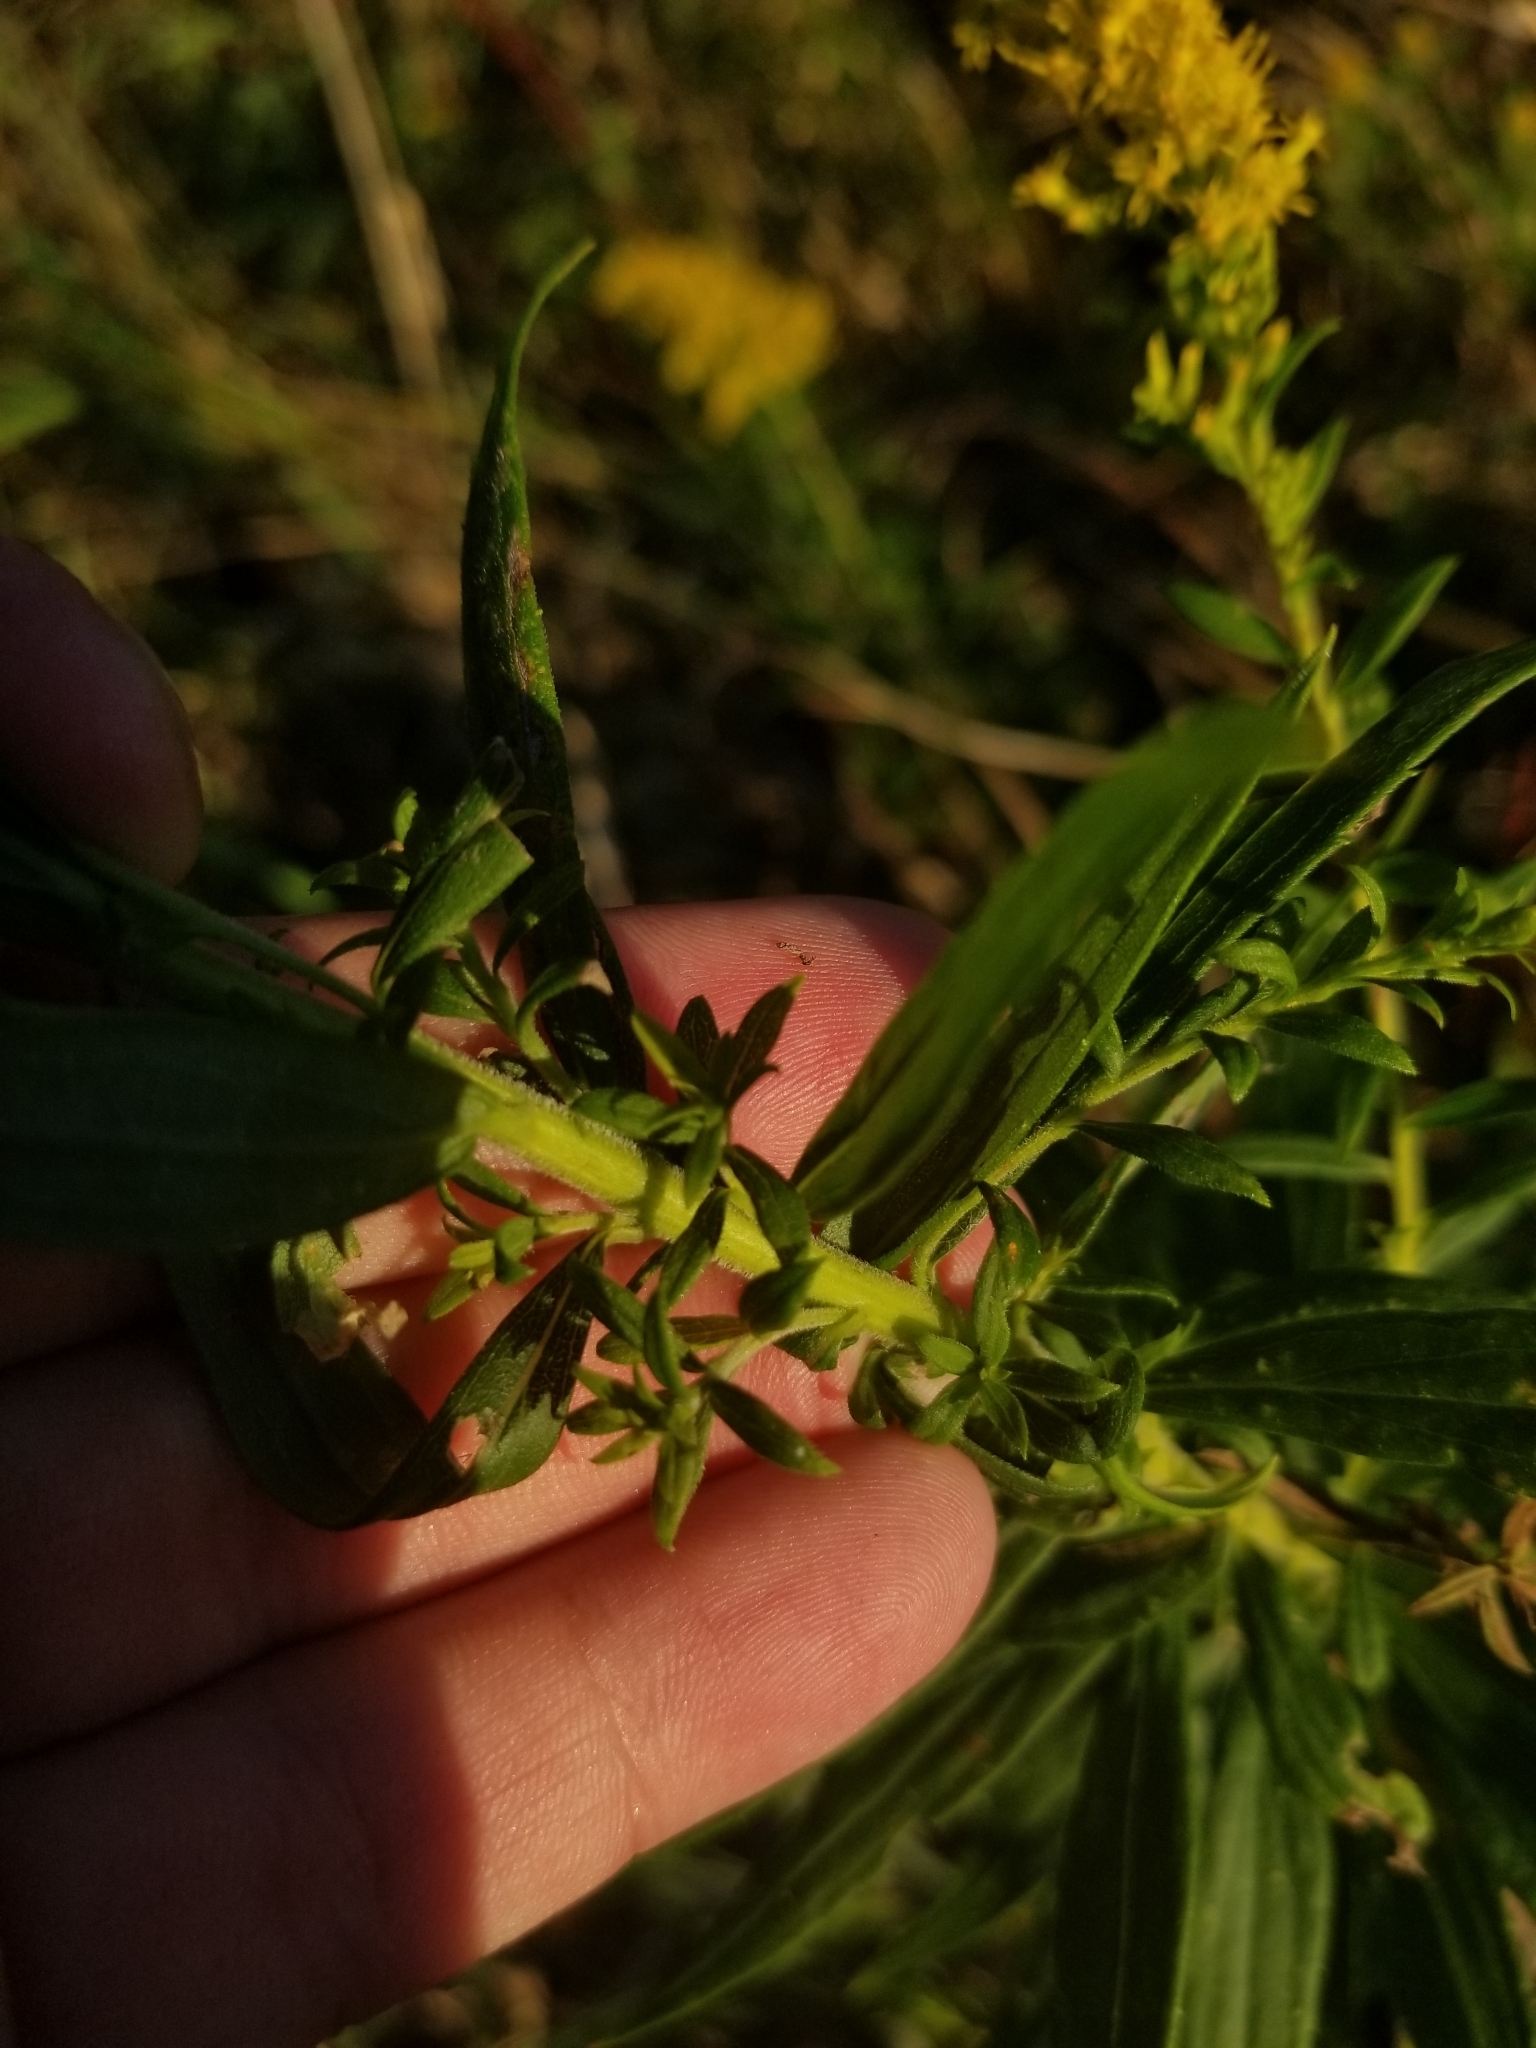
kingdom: Plantae
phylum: Tracheophyta
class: Magnoliopsida
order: Asterales
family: Asteraceae
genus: Solidago
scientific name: Solidago altissima
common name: Late goldenrod
